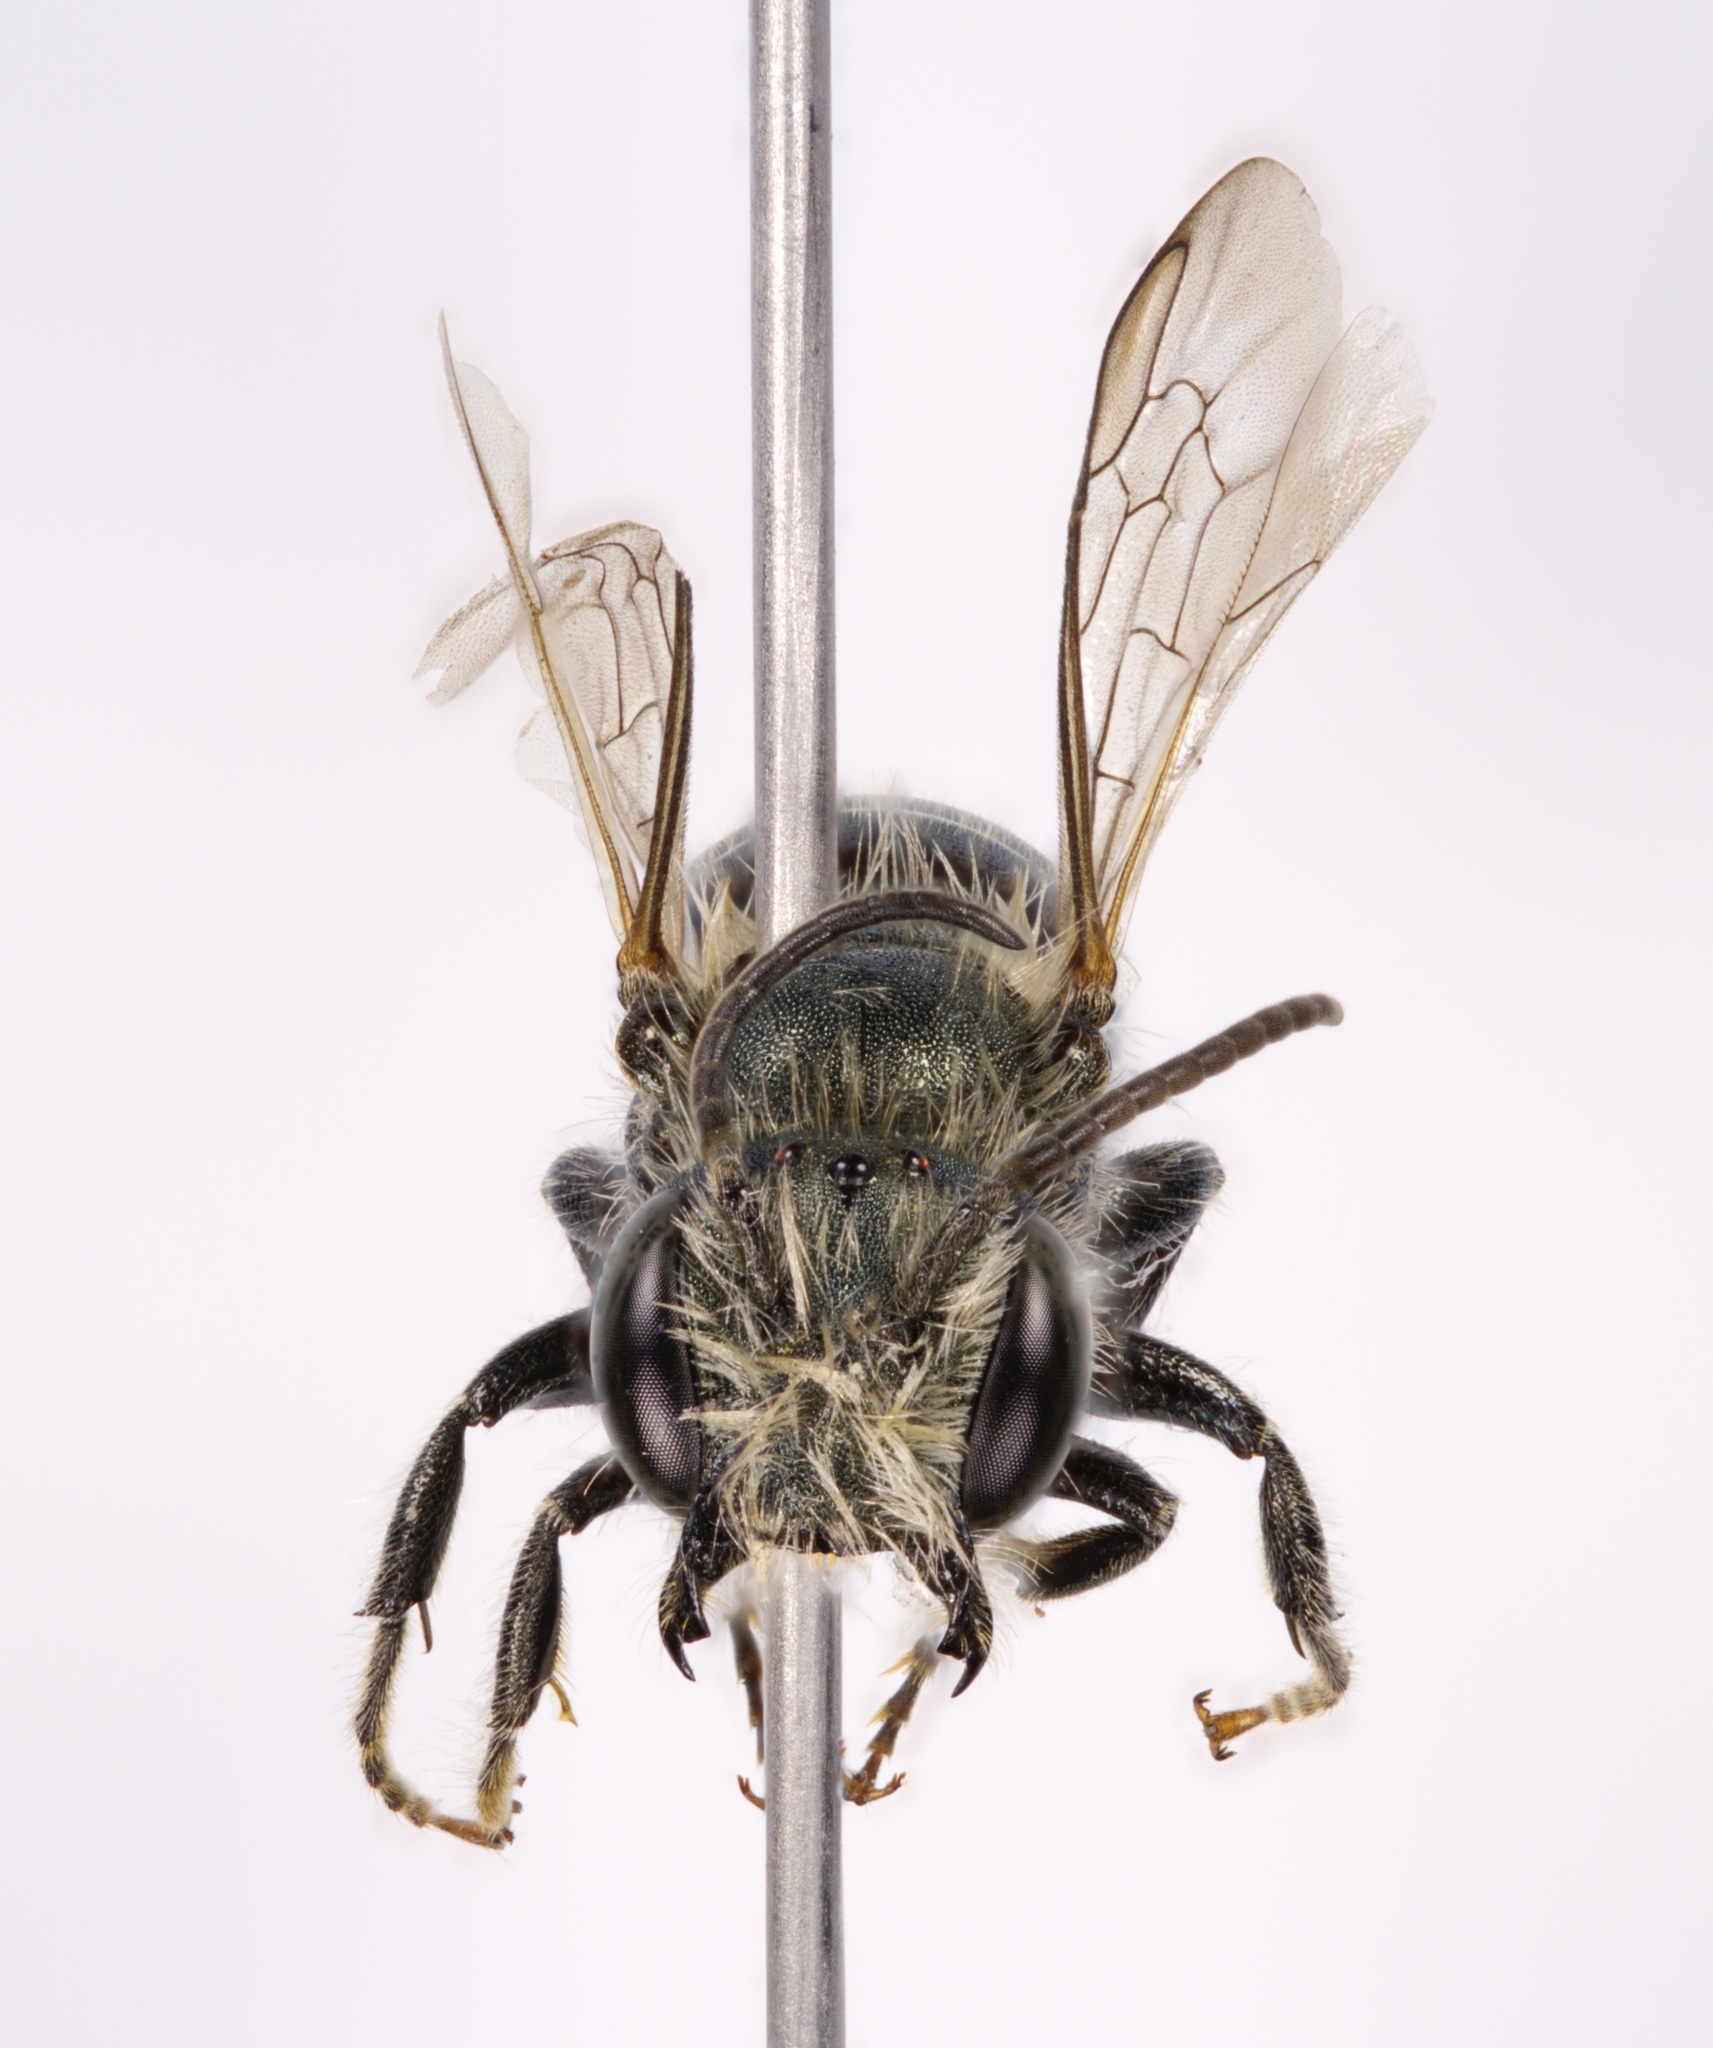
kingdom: Animalia
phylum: Arthropoda
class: Insecta
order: Hymenoptera
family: Megachilidae
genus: Osmia
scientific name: Osmia pumila
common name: Dwarf mason bee
